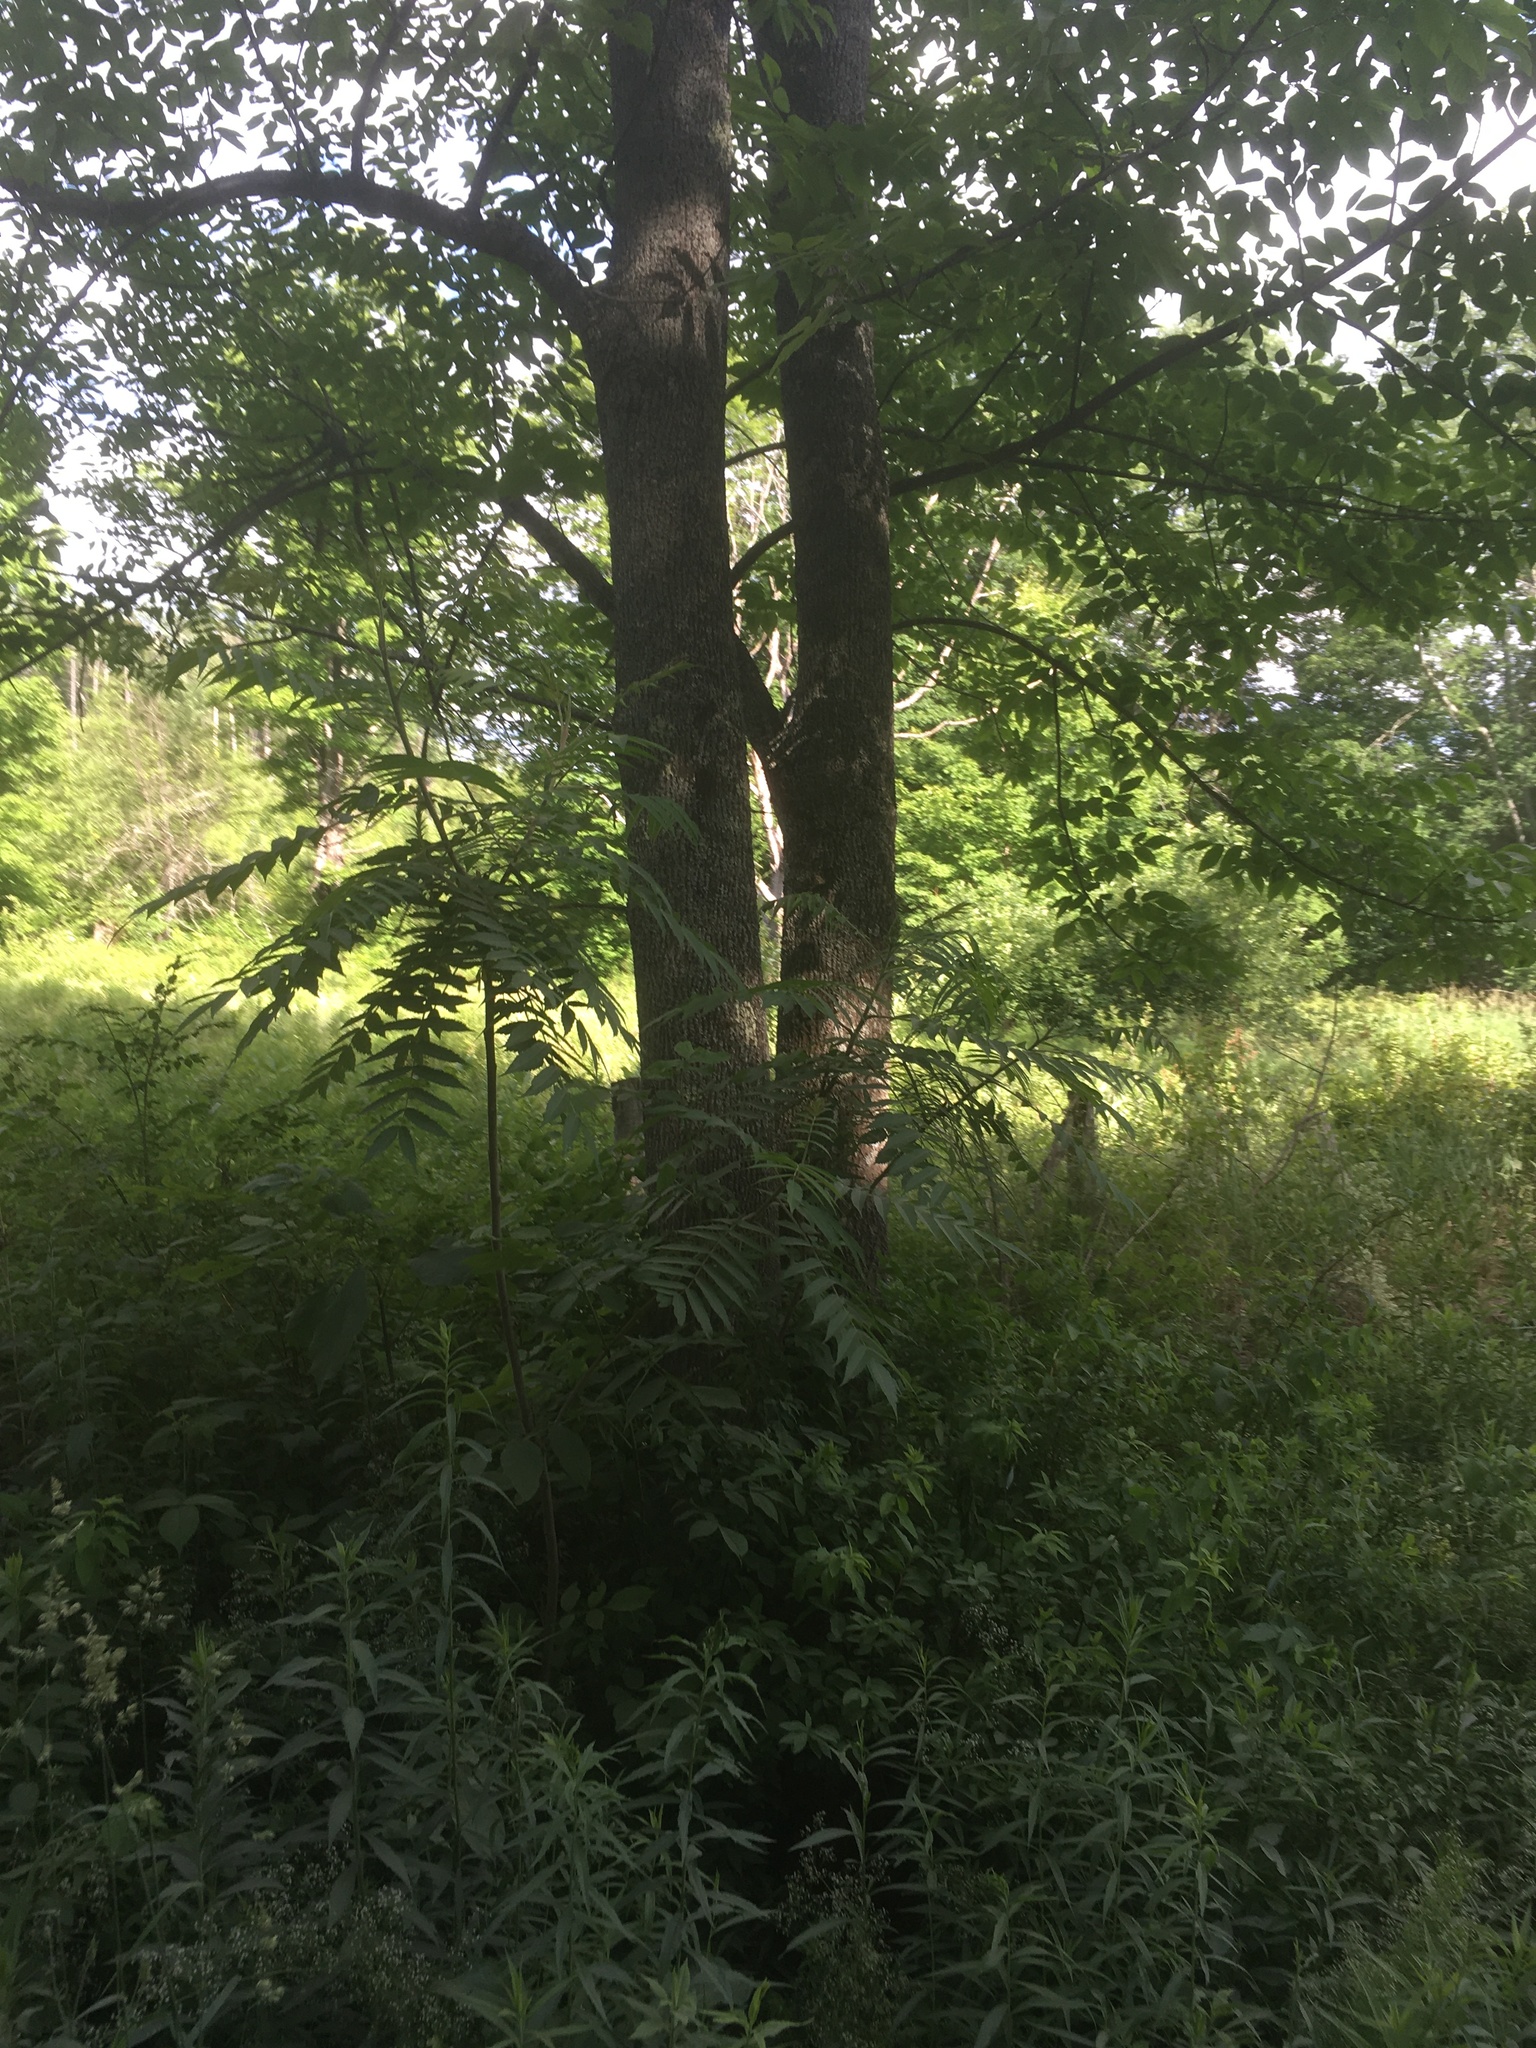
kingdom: Plantae
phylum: Tracheophyta
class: Magnoliopsida
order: Sapindales
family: Anacardiaceae
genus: Rhus
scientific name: Rhus typhina
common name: Staghorn sumac
